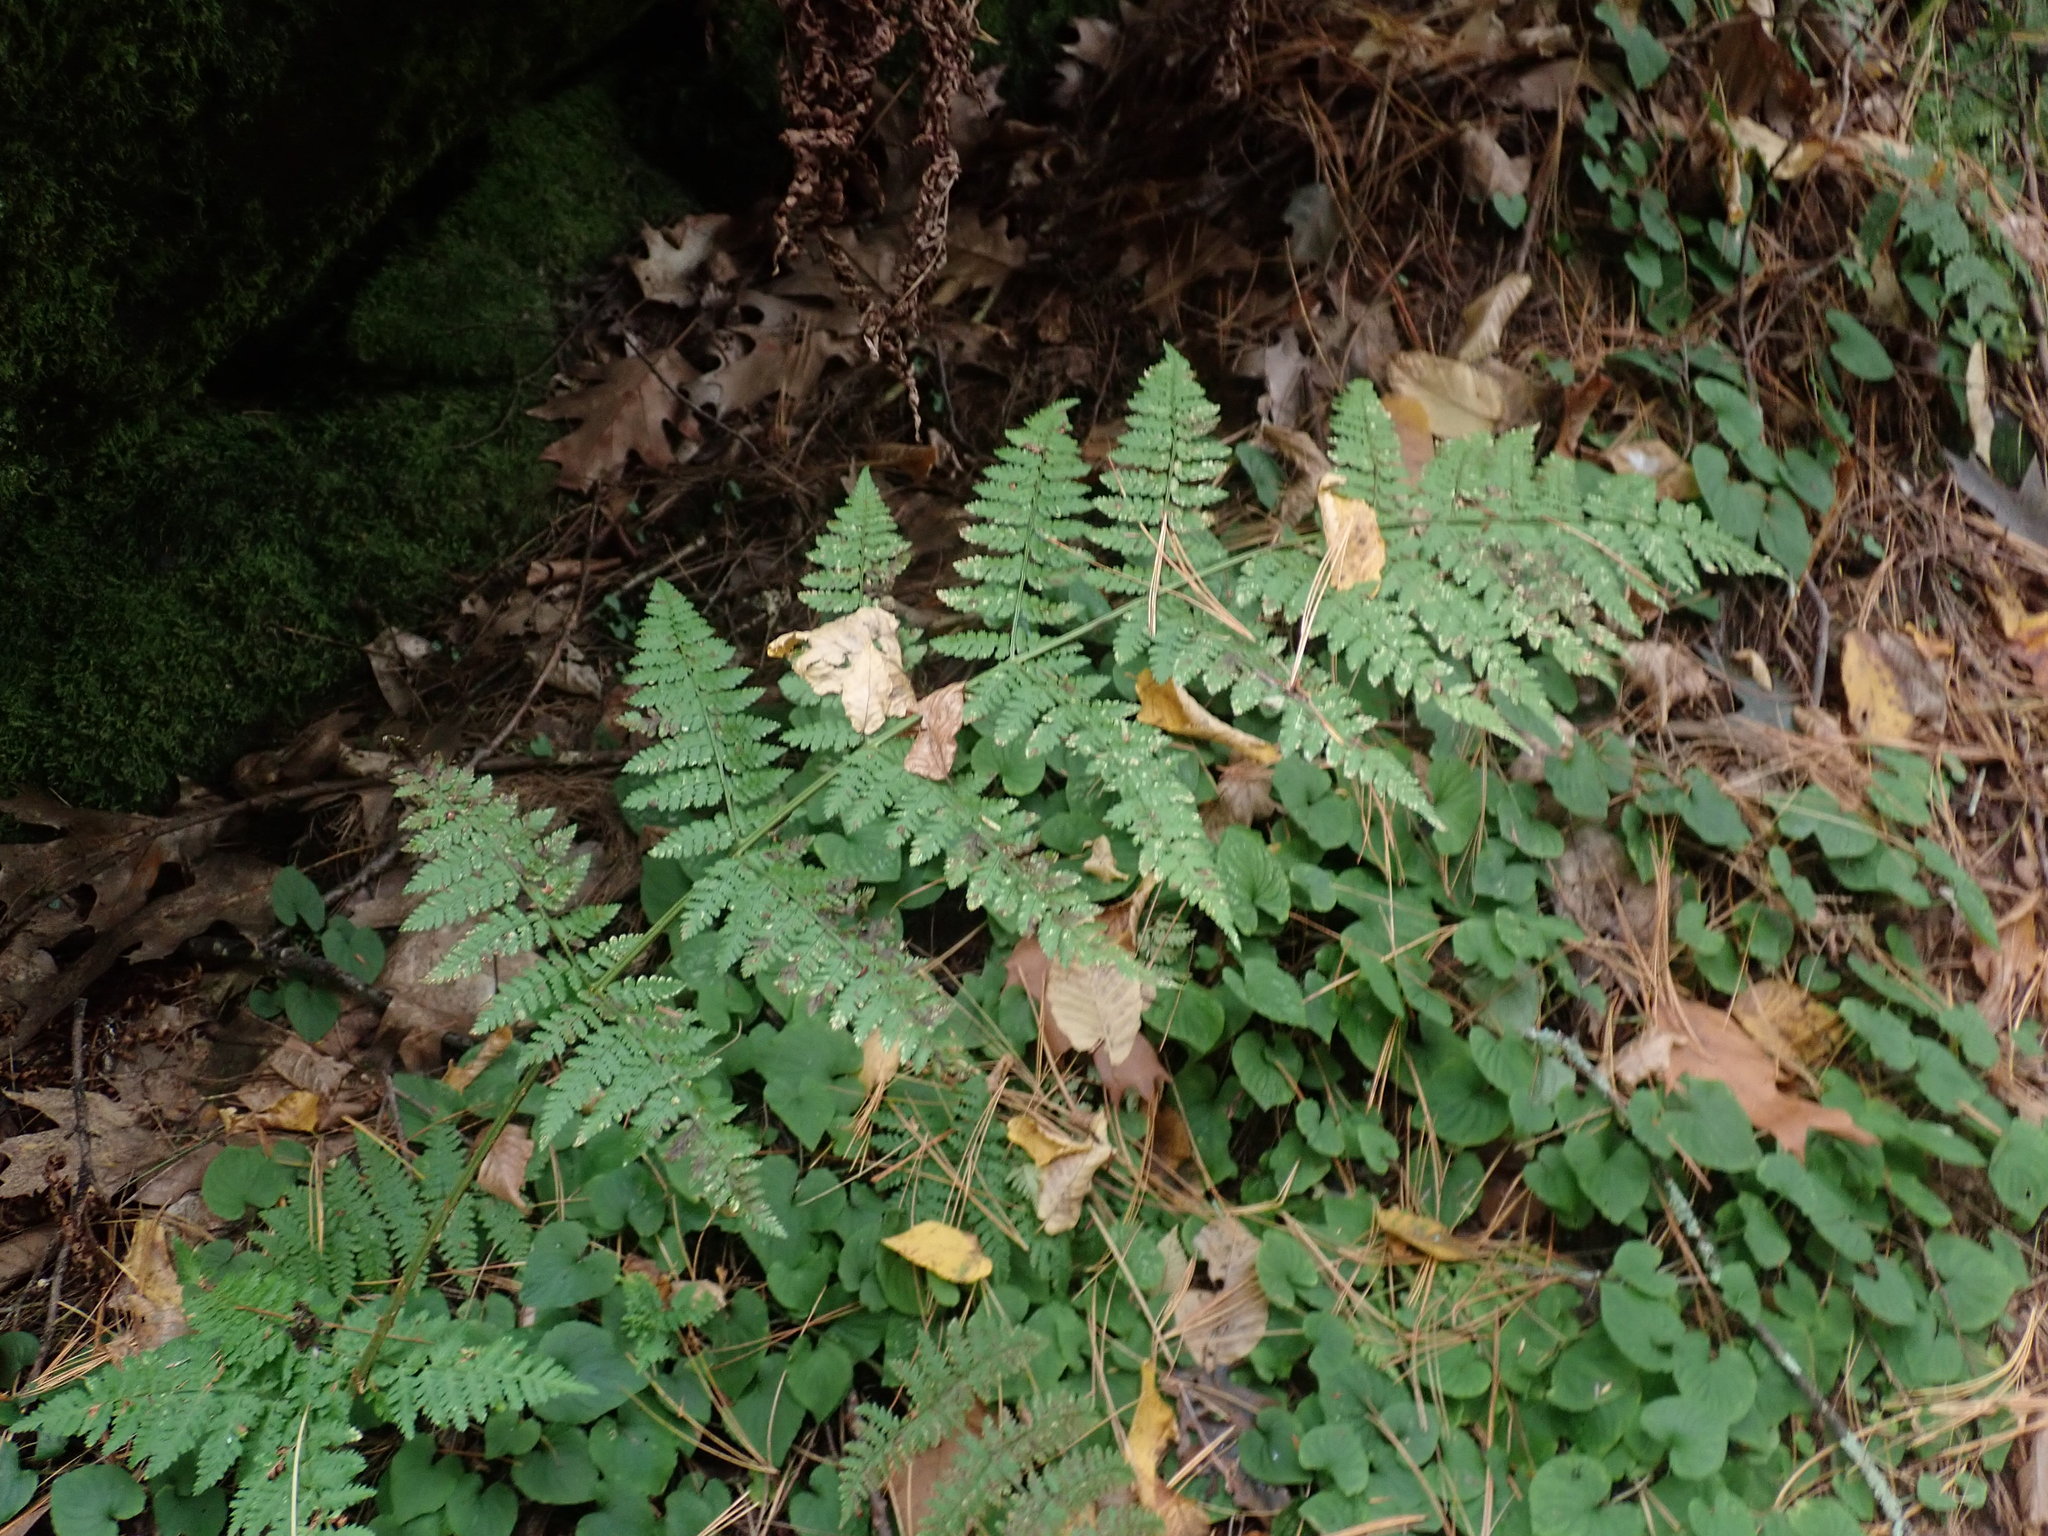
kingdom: Plantae
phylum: Tracheophyta
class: Polypodiopsida
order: Polypodiales
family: Dryopteridaceae
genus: Dryopteris
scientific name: Dryopteris intermedia
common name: Evergreen wood fern
